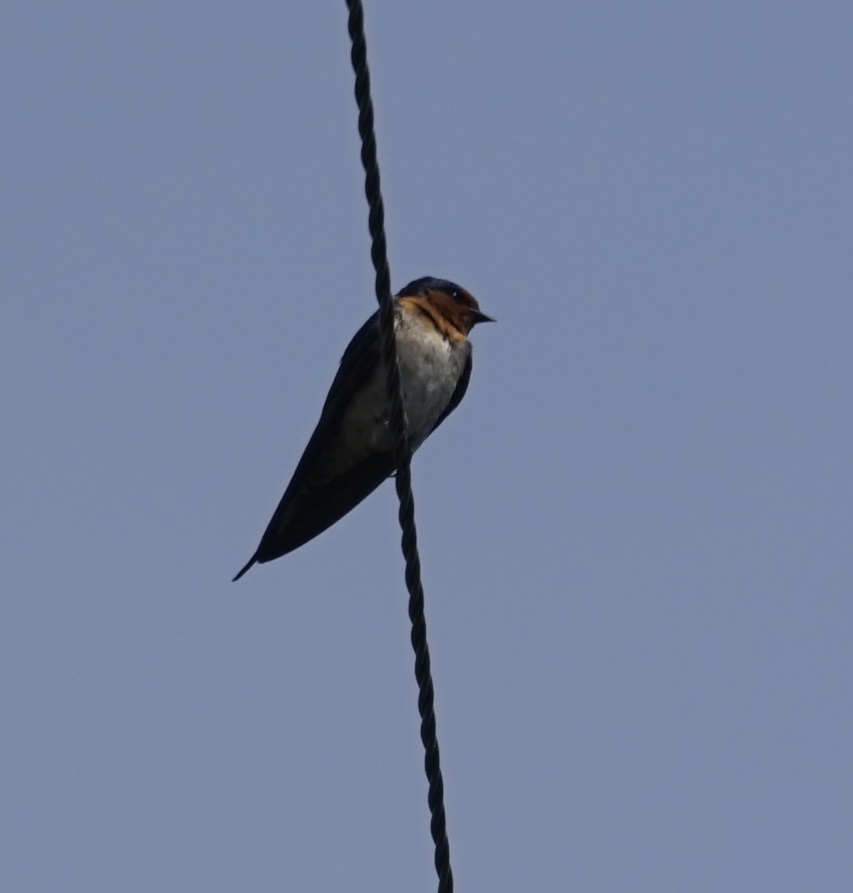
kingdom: Animalia
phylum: Chordata
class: Aves
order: Passeriformes
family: Hirundinidae
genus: Hirundo
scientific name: Hirundo neoxena
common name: Welcome swallow
